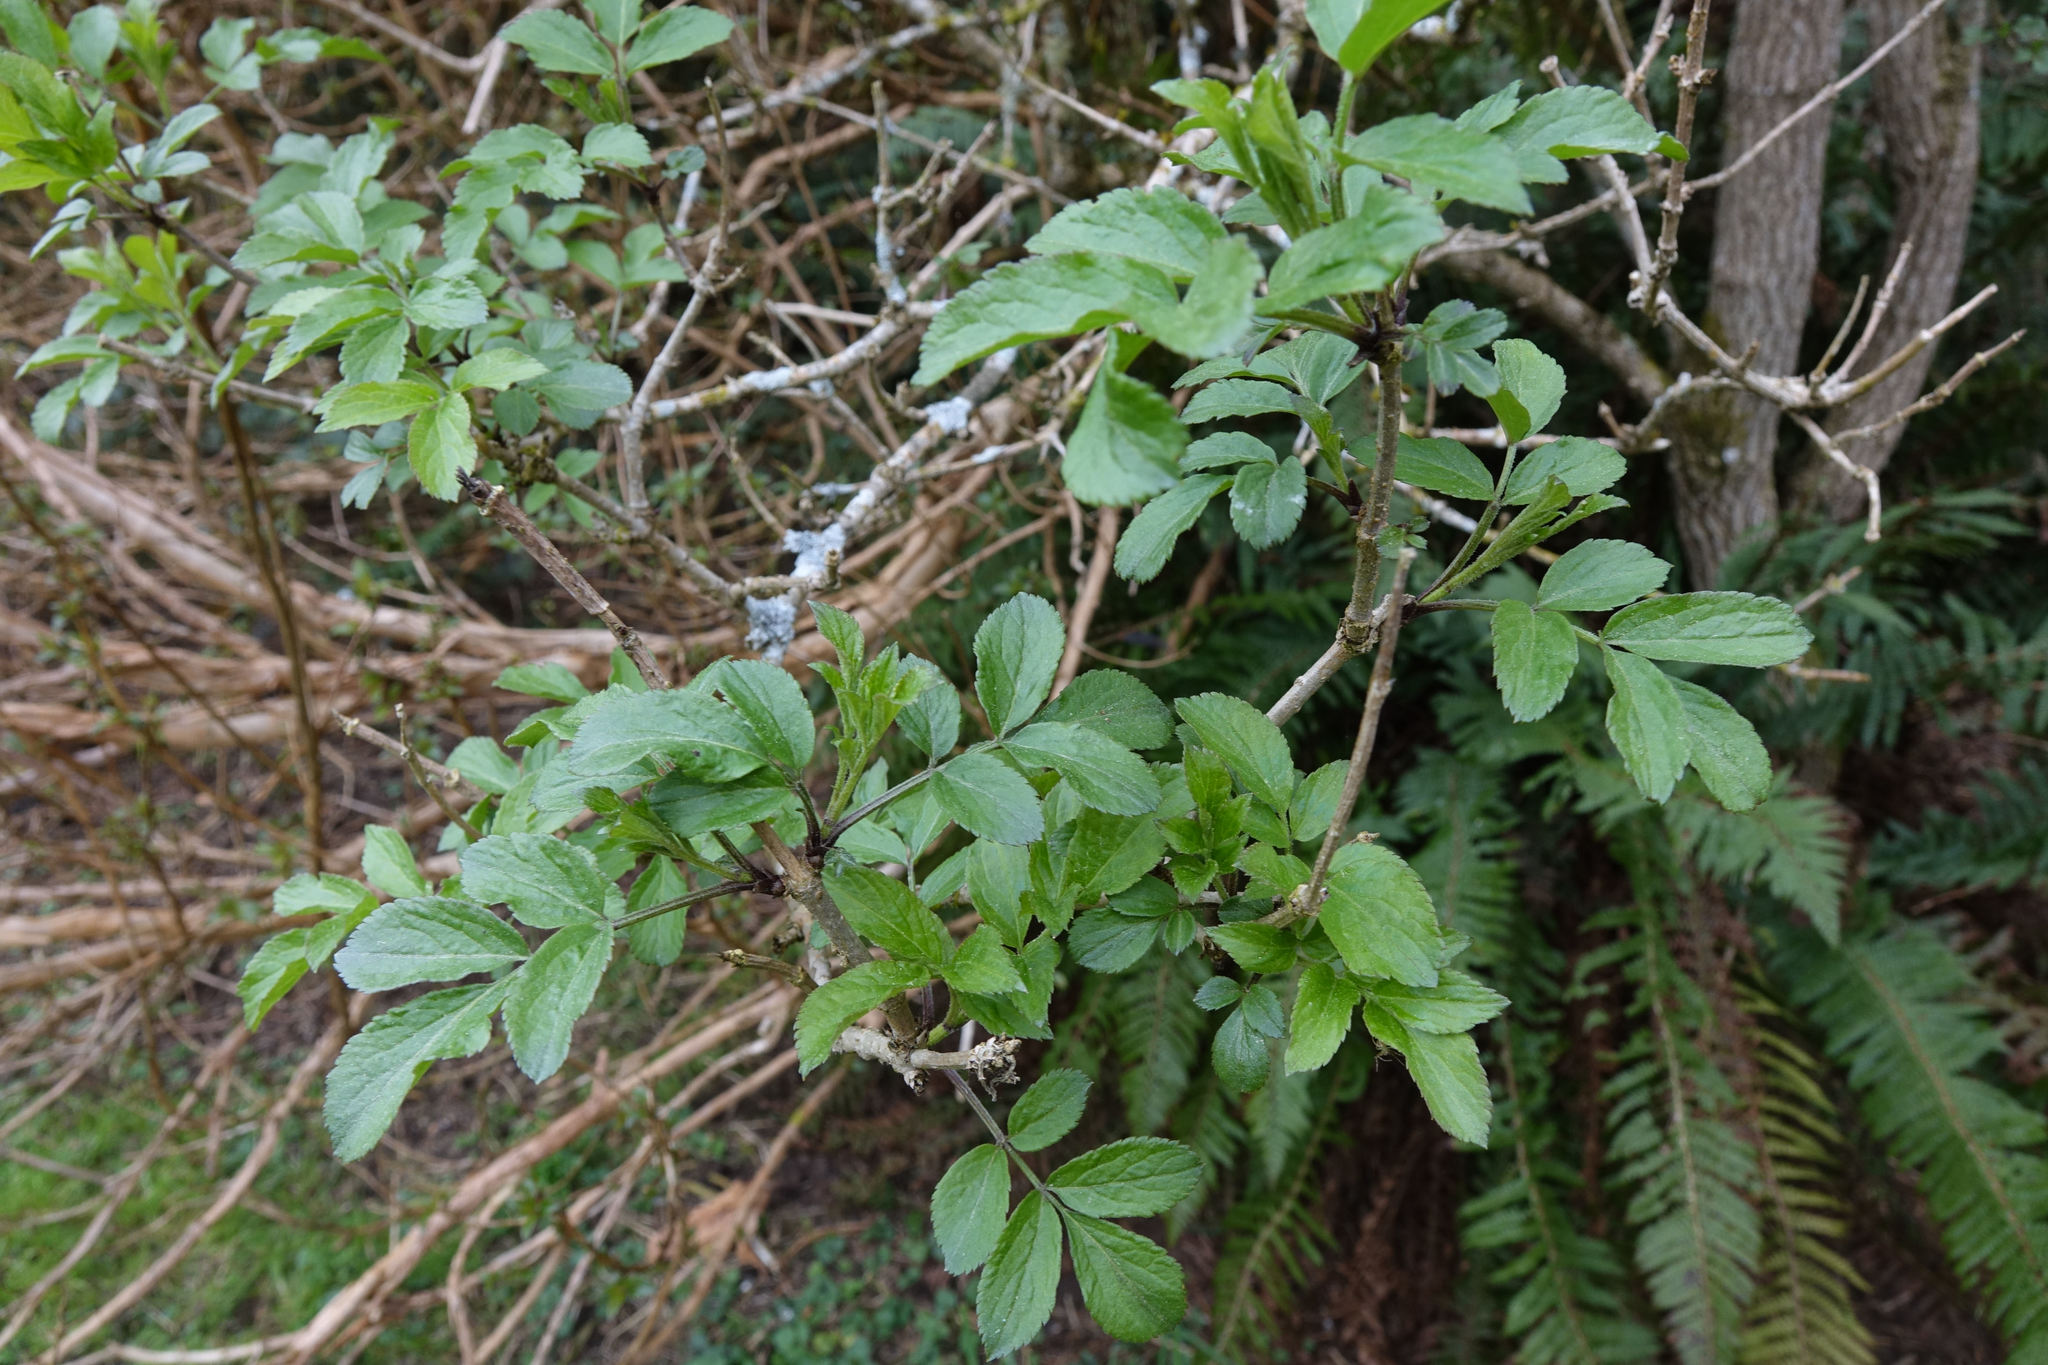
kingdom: Plantae
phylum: Tracheophyta
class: Magnoliopsida
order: Dipsacales
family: Viburnaceae
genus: Sambucus
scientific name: Sambucus nigra
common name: Elder
